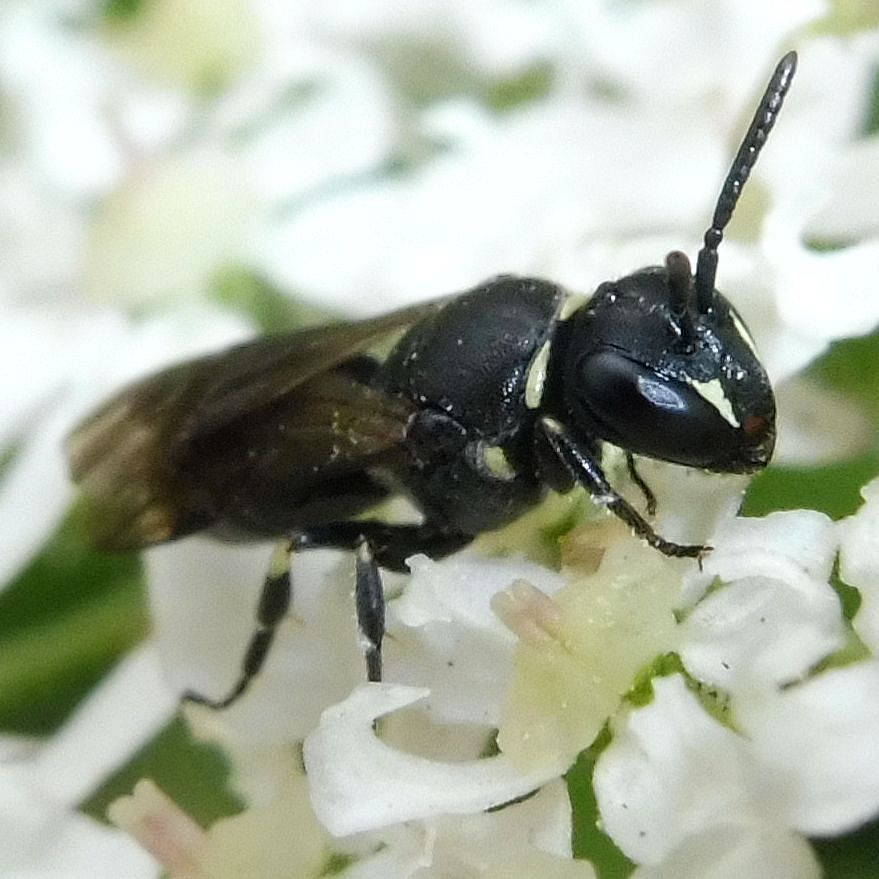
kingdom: Animalia
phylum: Arthropoda
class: Insecta
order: Hymenoptera
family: Colletidae
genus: Hylaeus
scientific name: Hylaeus
